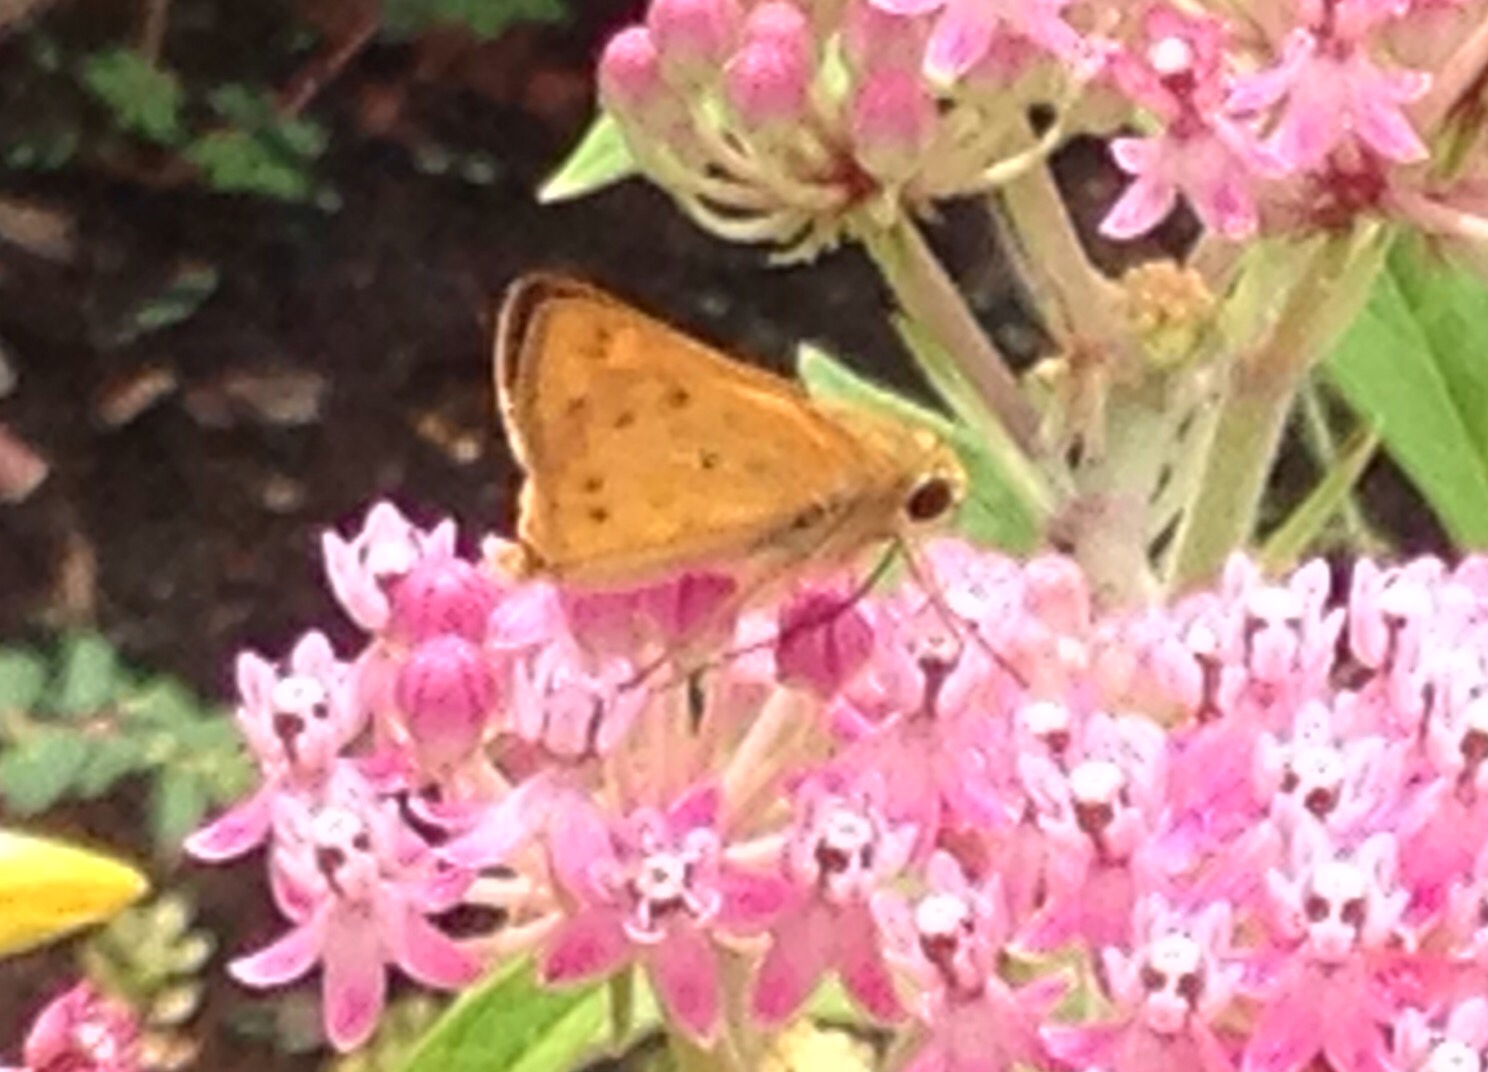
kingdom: Animalia
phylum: Arthropoda
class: Insecta
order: Lepidoptera
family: Hesperiidae
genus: Hylephila
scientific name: Hylephila phyleus
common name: Fiery skipper
